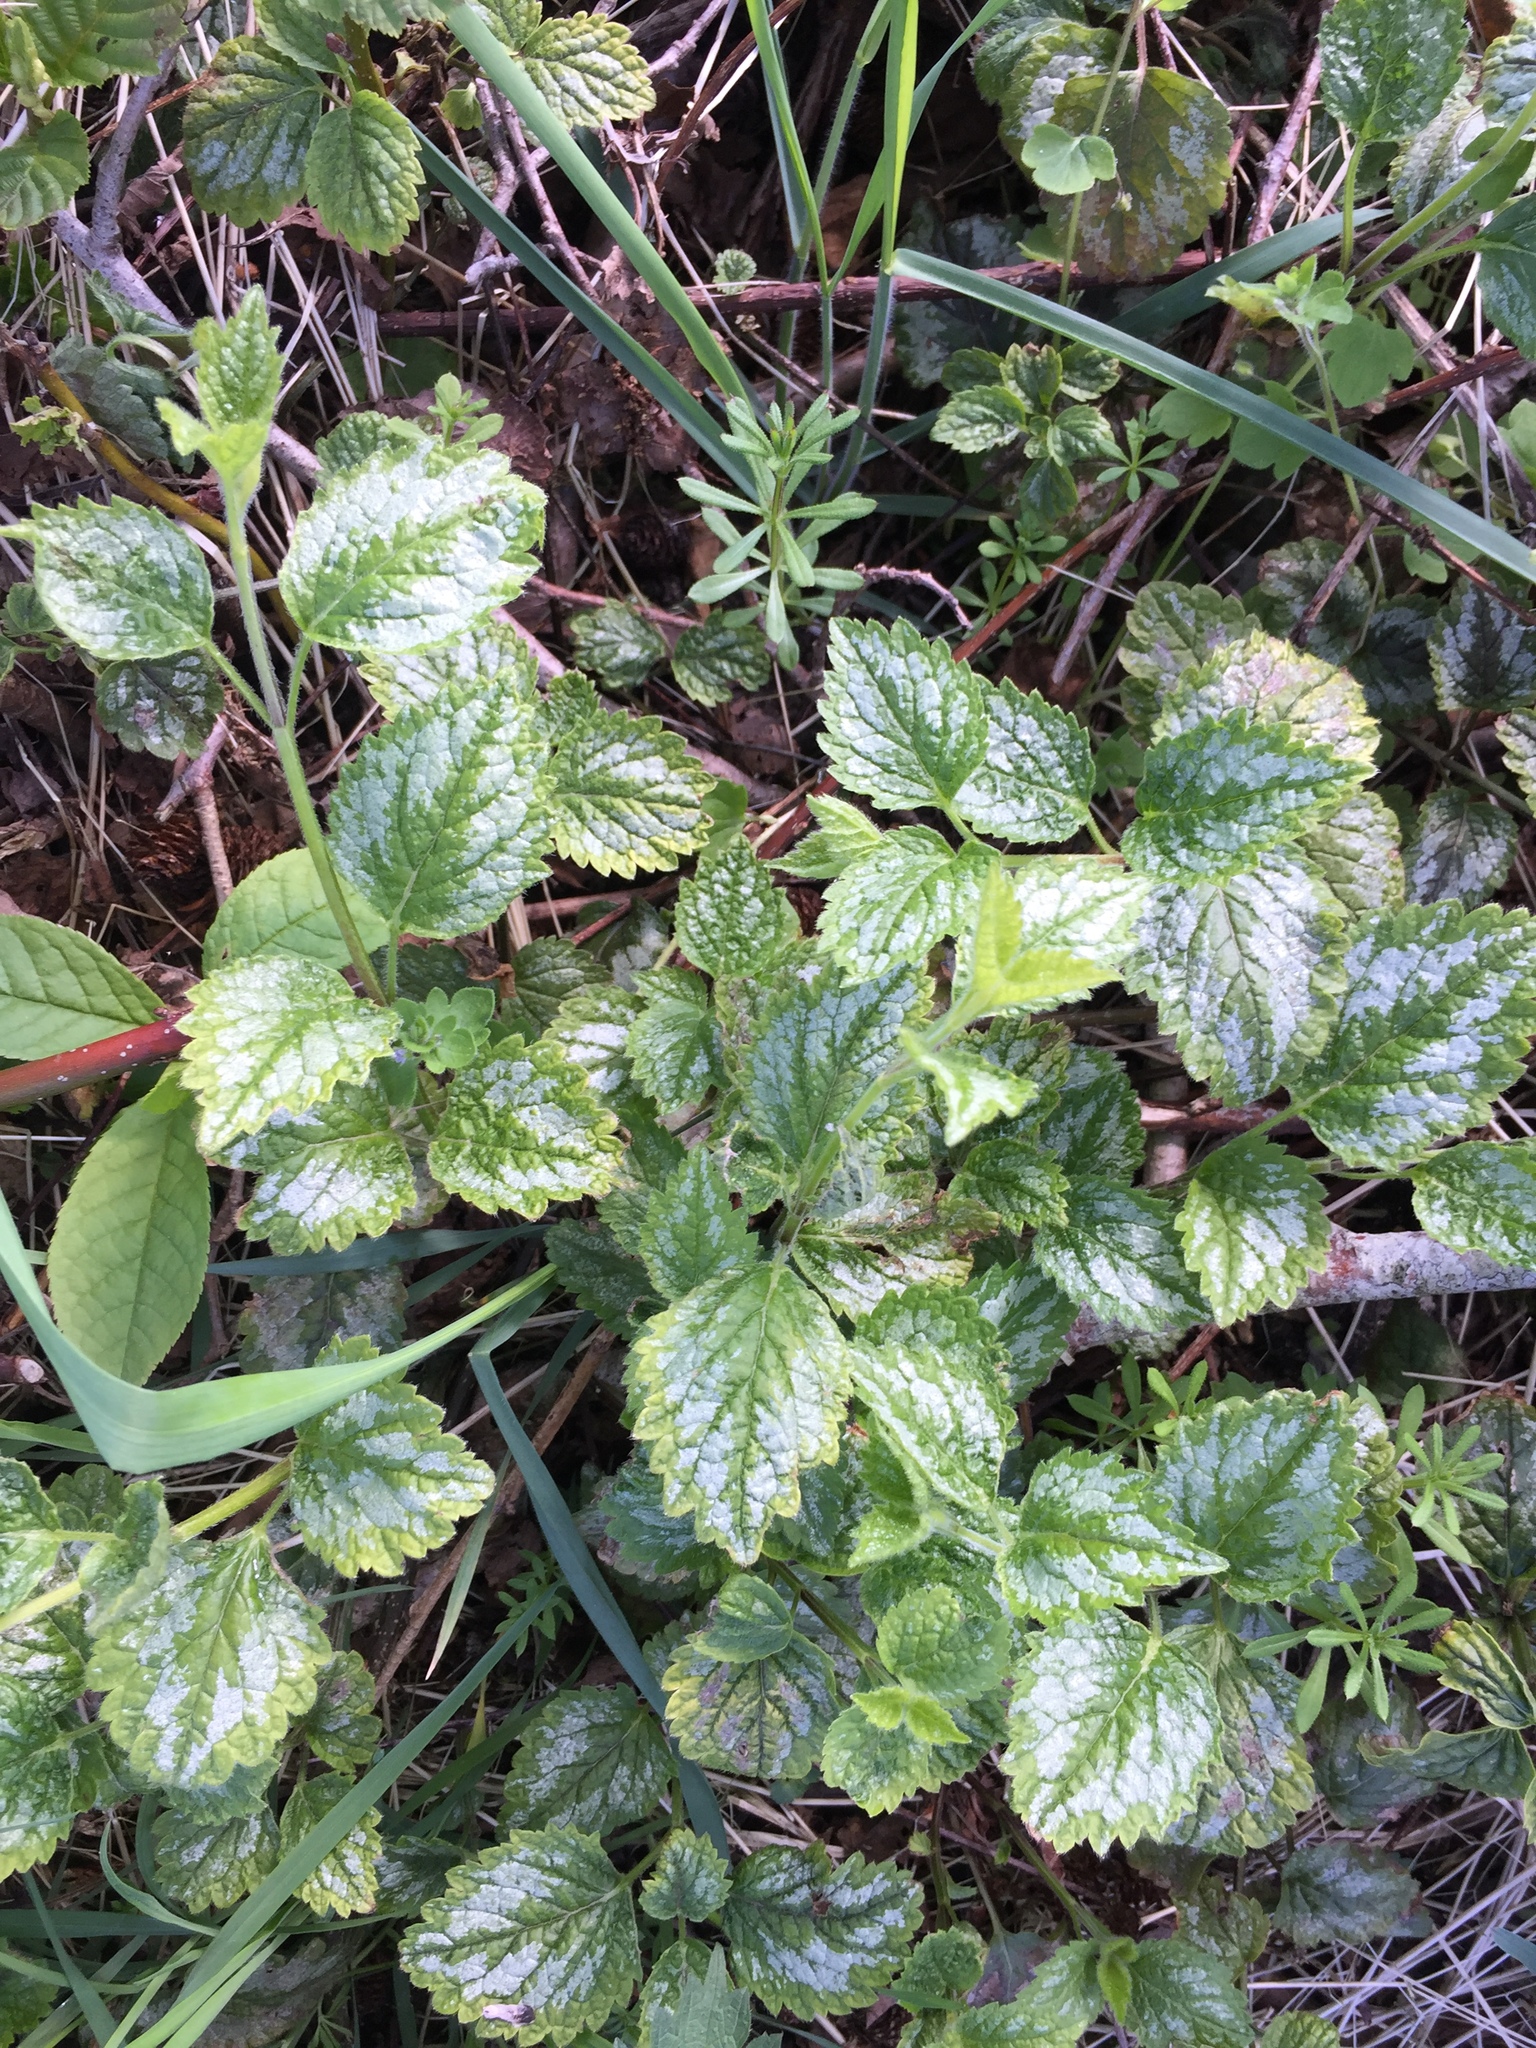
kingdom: Plantae
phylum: Tracheophyta
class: Magnoliopsida
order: Lamiales
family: Lamiaceae
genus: Lamium
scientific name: Lamium galeobdolon
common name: Yellow archangel
